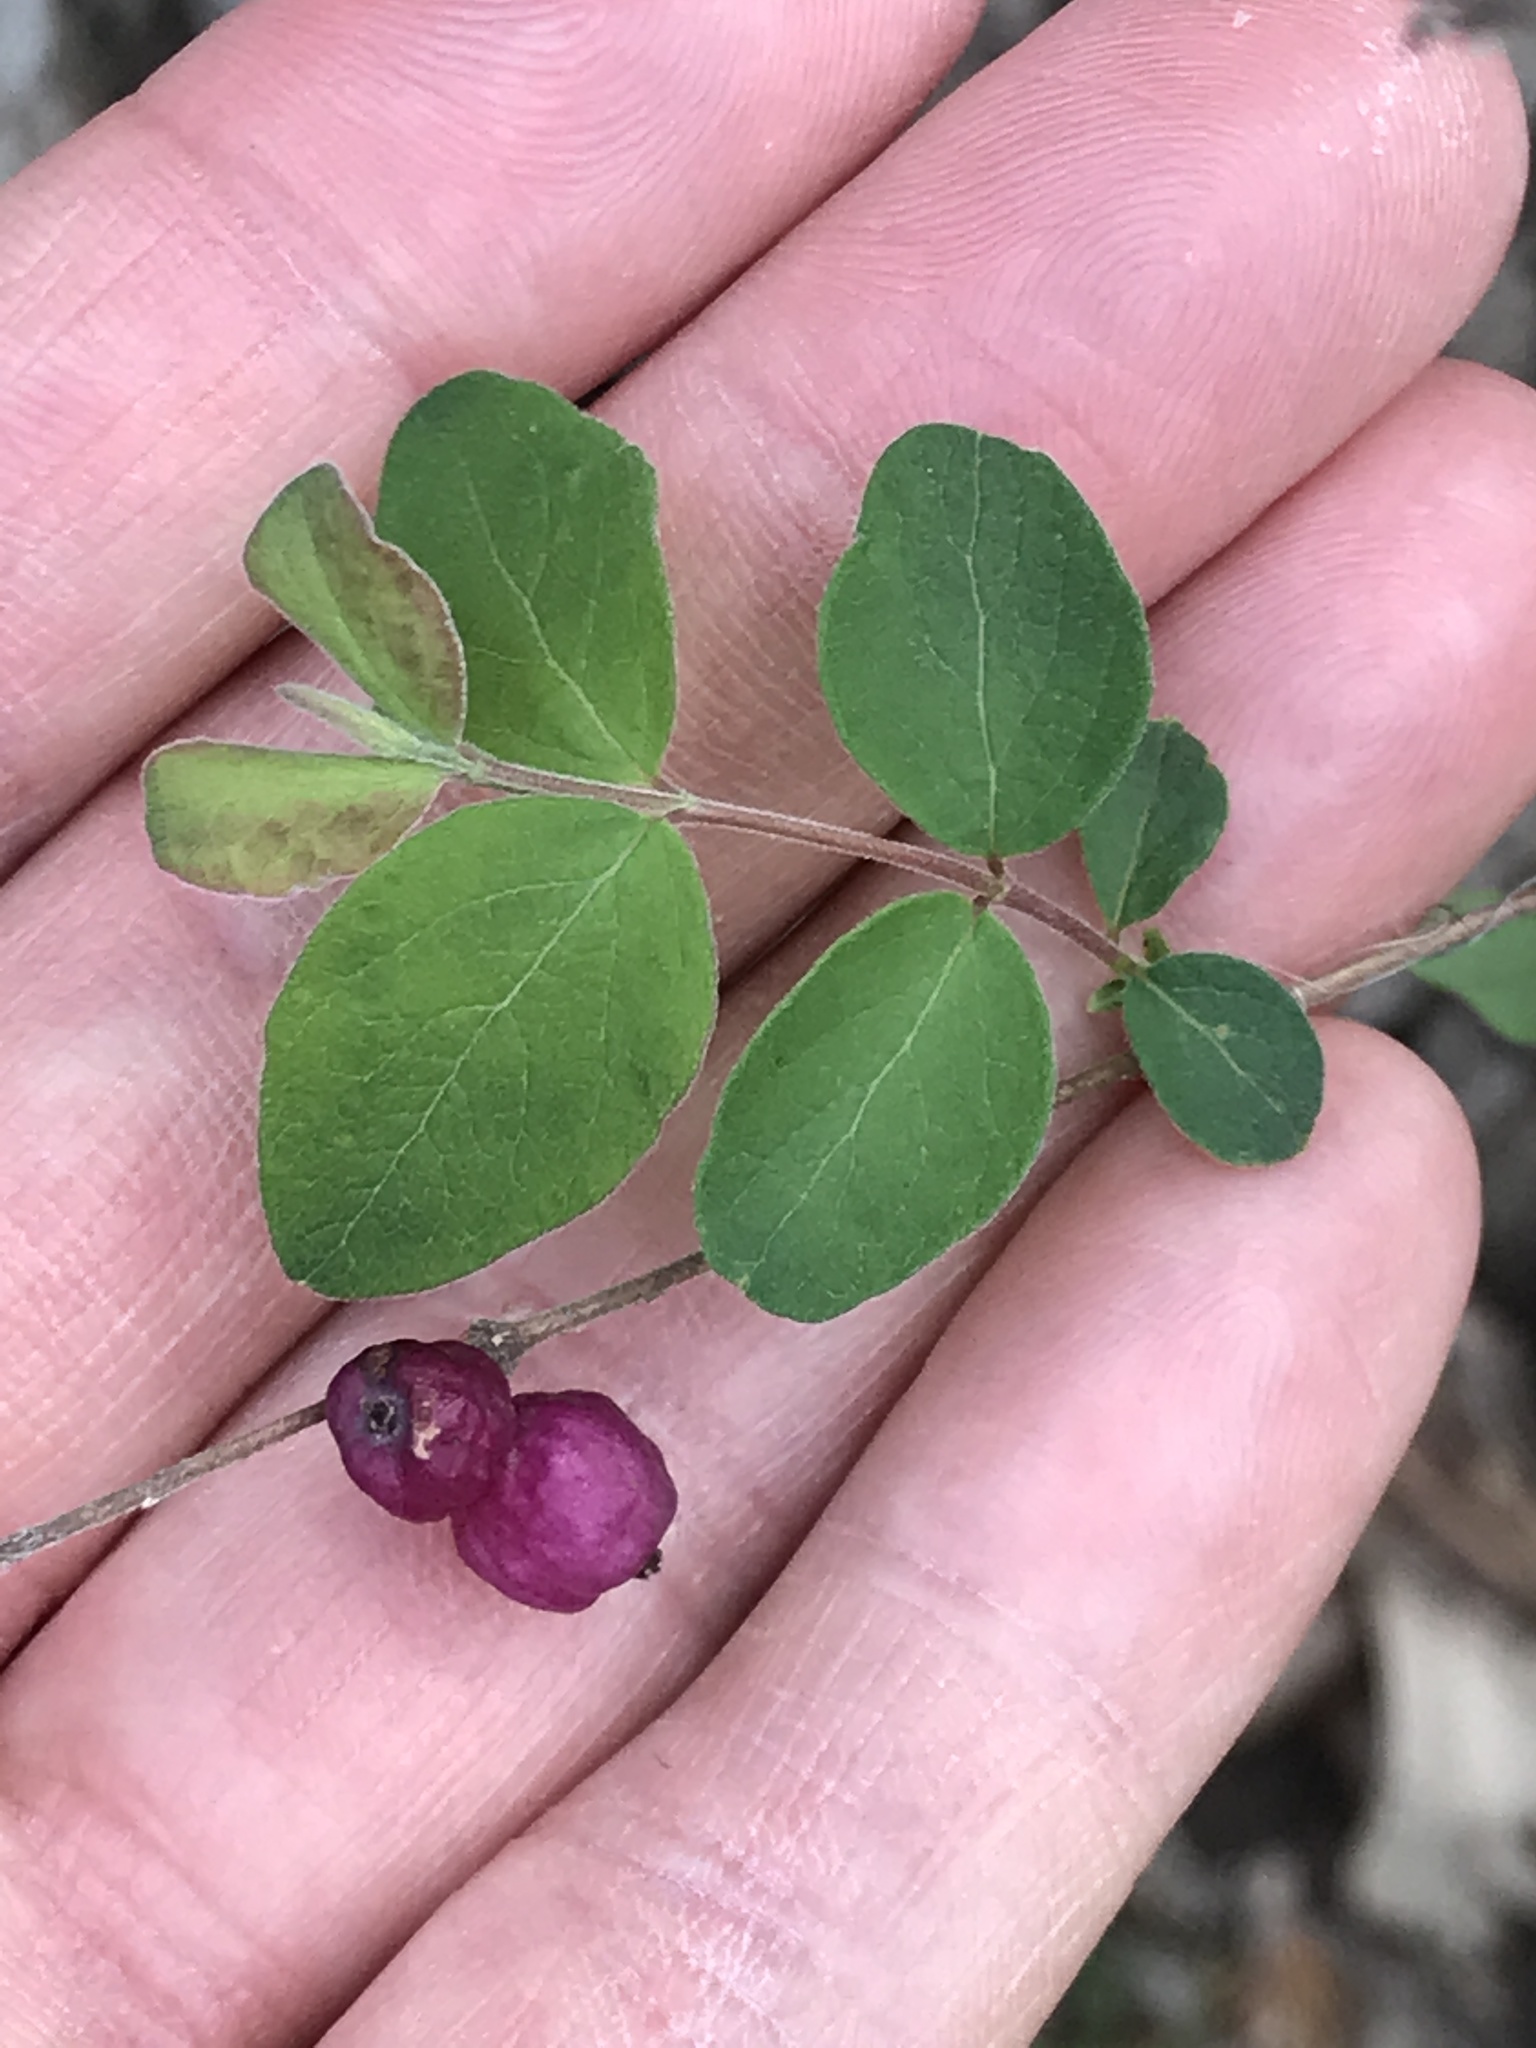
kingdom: Plantae
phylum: Tracheophyta
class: Magnoliopsida
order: Dipsacales
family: Caprifoliaceae
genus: Symphoricarpos
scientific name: Symphoricarpos orbiculatus
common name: Coralberry
